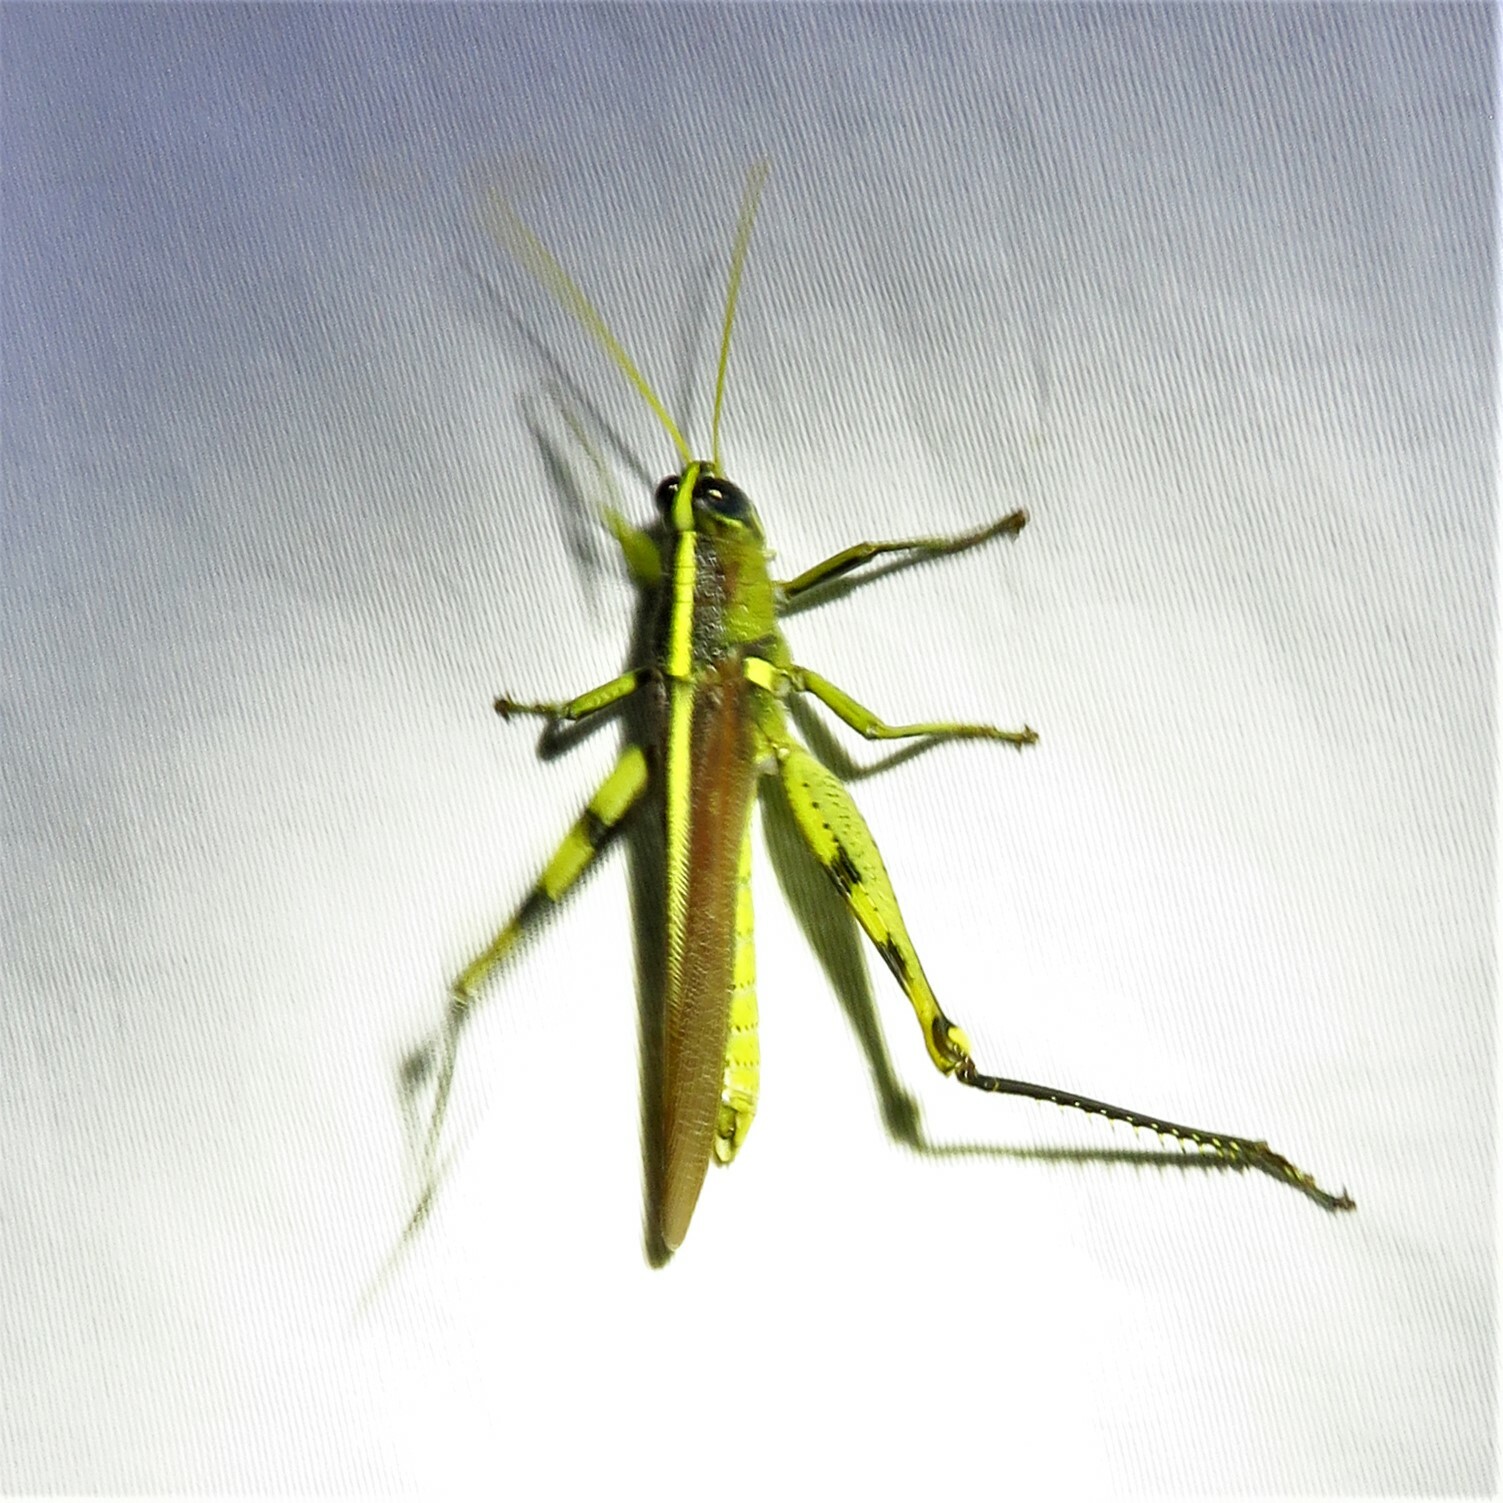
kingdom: Animalia
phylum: Arthropoda
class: Insecta
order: Orthoptera
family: Acrididae
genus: Schistocerca
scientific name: Schistocerca obscura
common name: Obscure bird grasshopper
